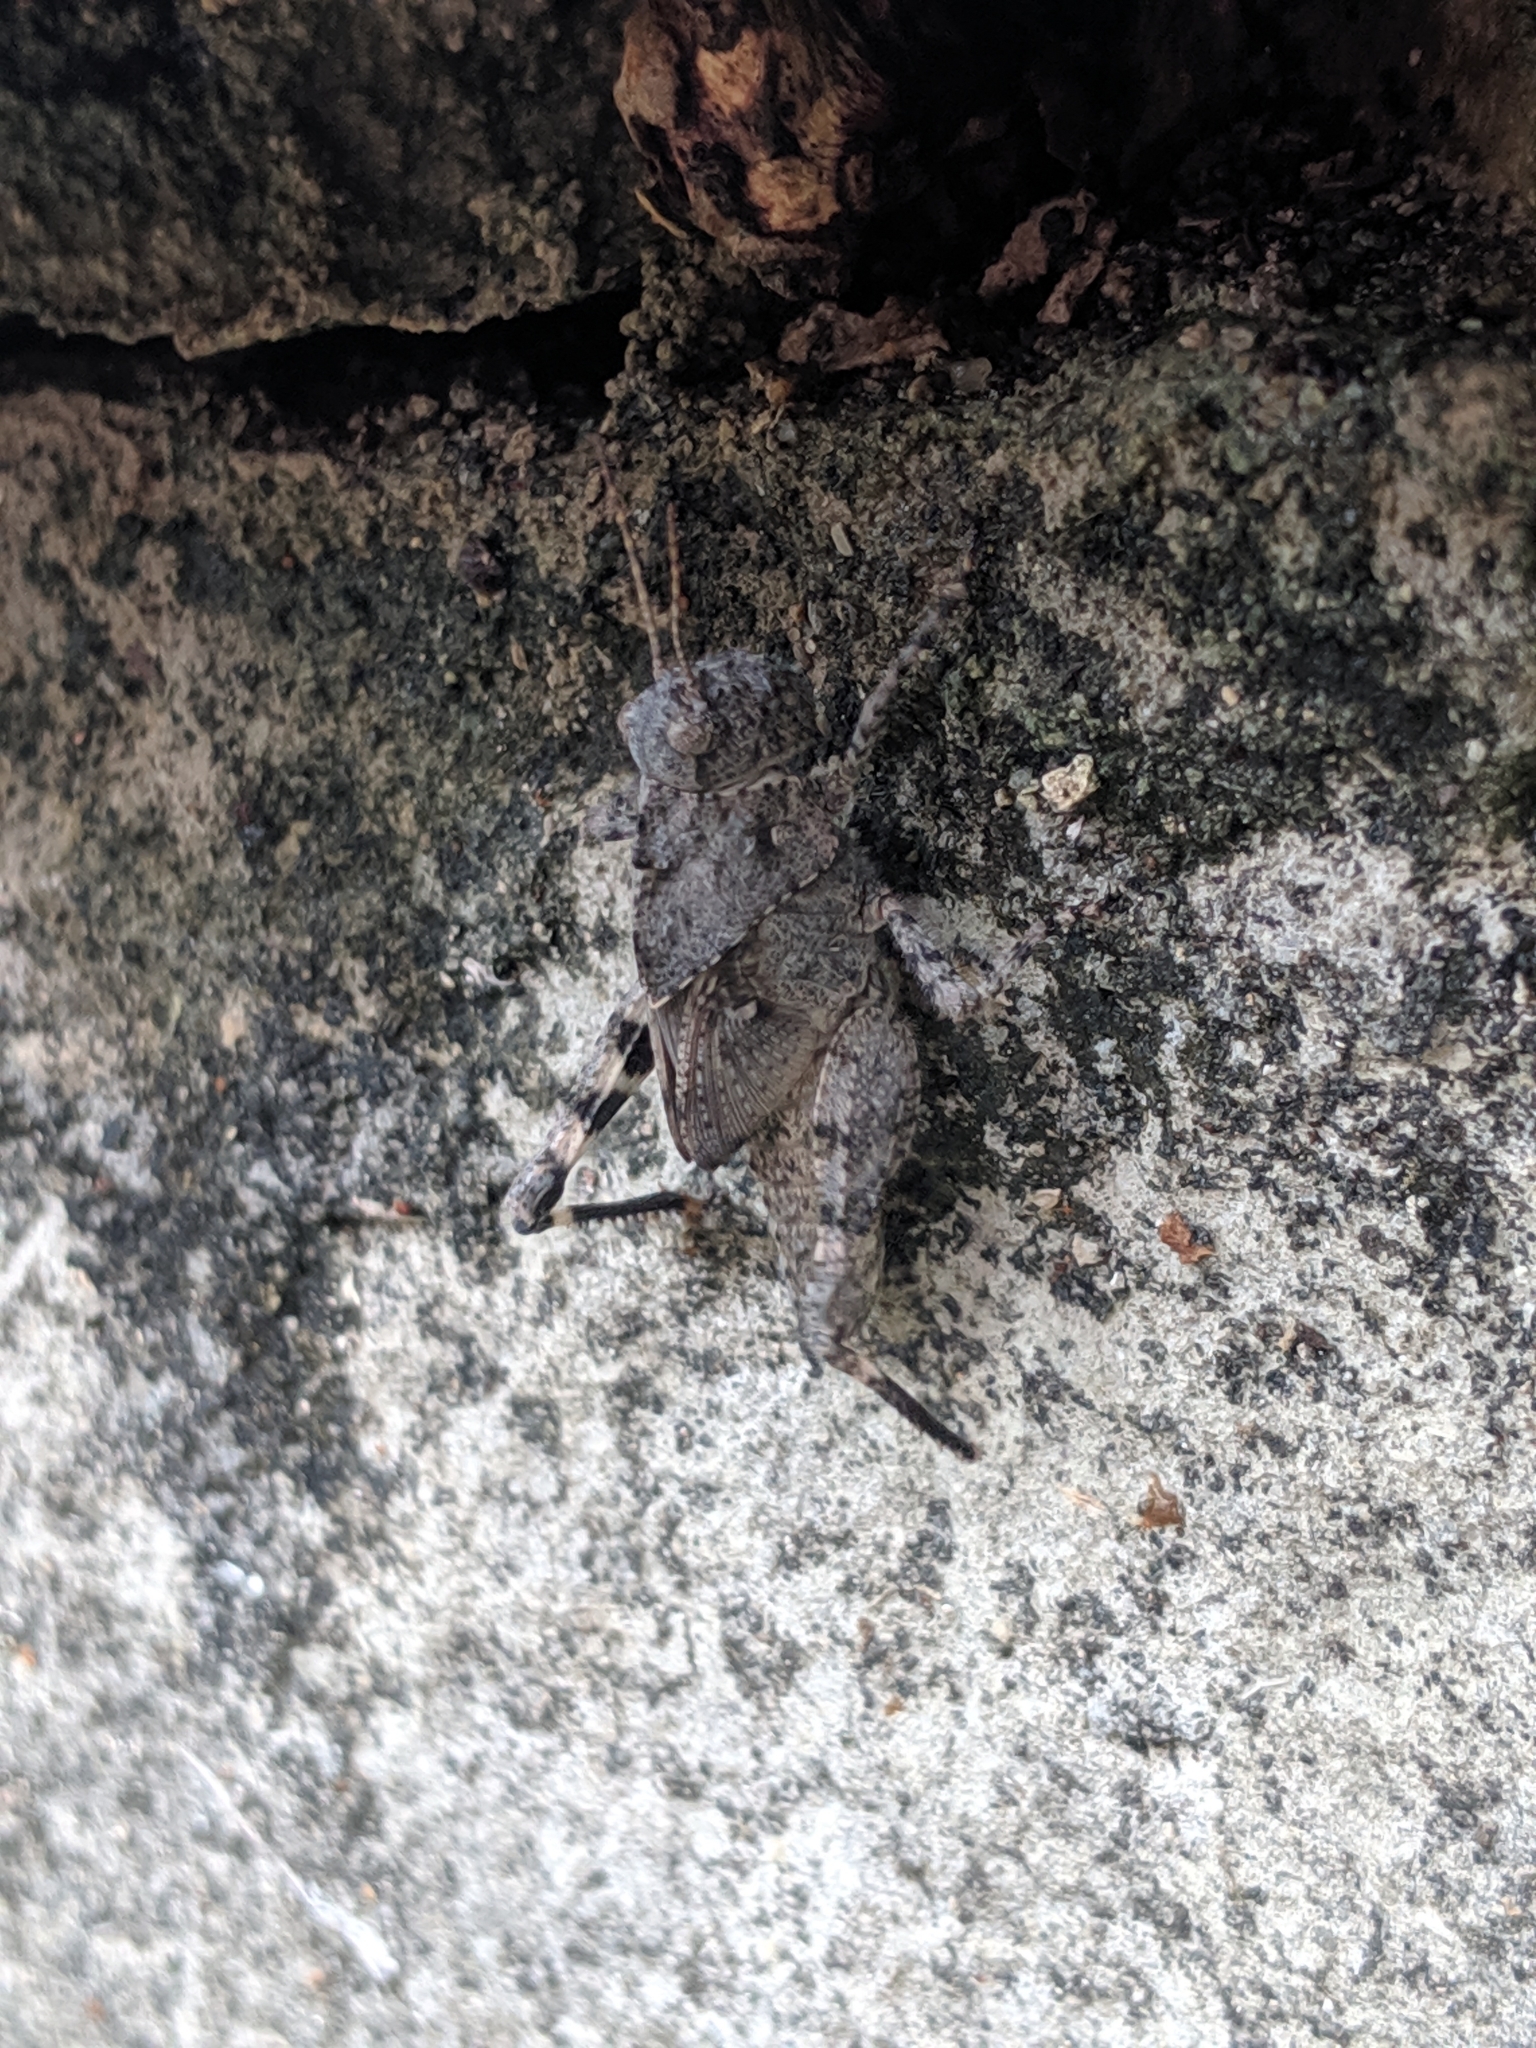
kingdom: Animalia
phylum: Arthropoda
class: Insecta
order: Orthoptera
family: Acrididae
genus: Dissosteira
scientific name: Dissosteira carolina
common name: Carolina grasshopper
